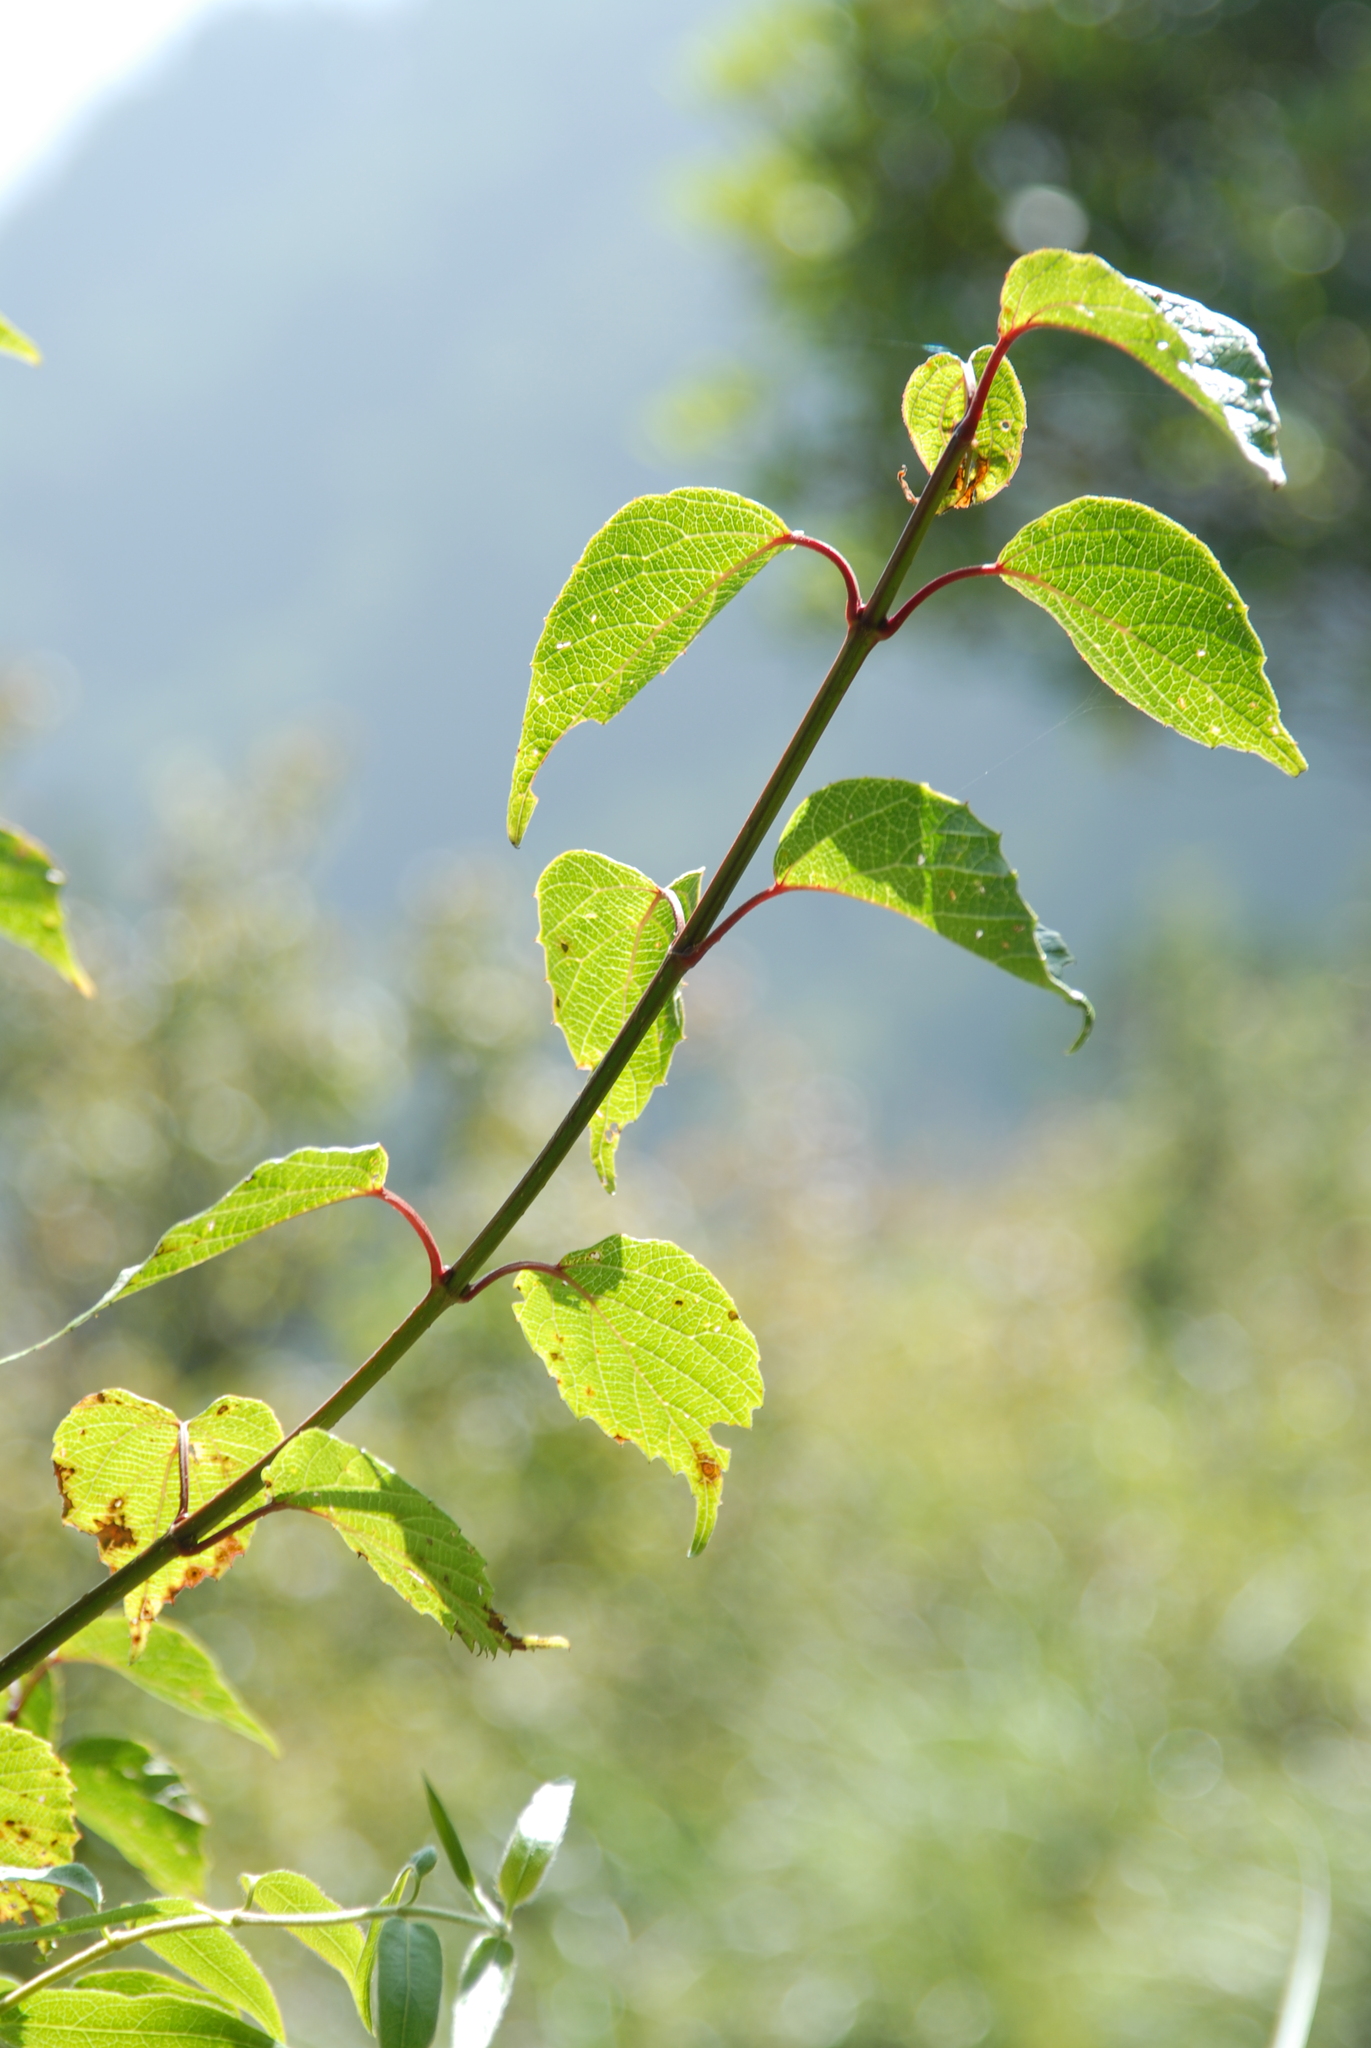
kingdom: Plantae
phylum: Tracheophyta
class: Magnoliopsida
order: Dipsacales
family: Viburnaceae
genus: Viburnum
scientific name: Viburnum betulifolium
